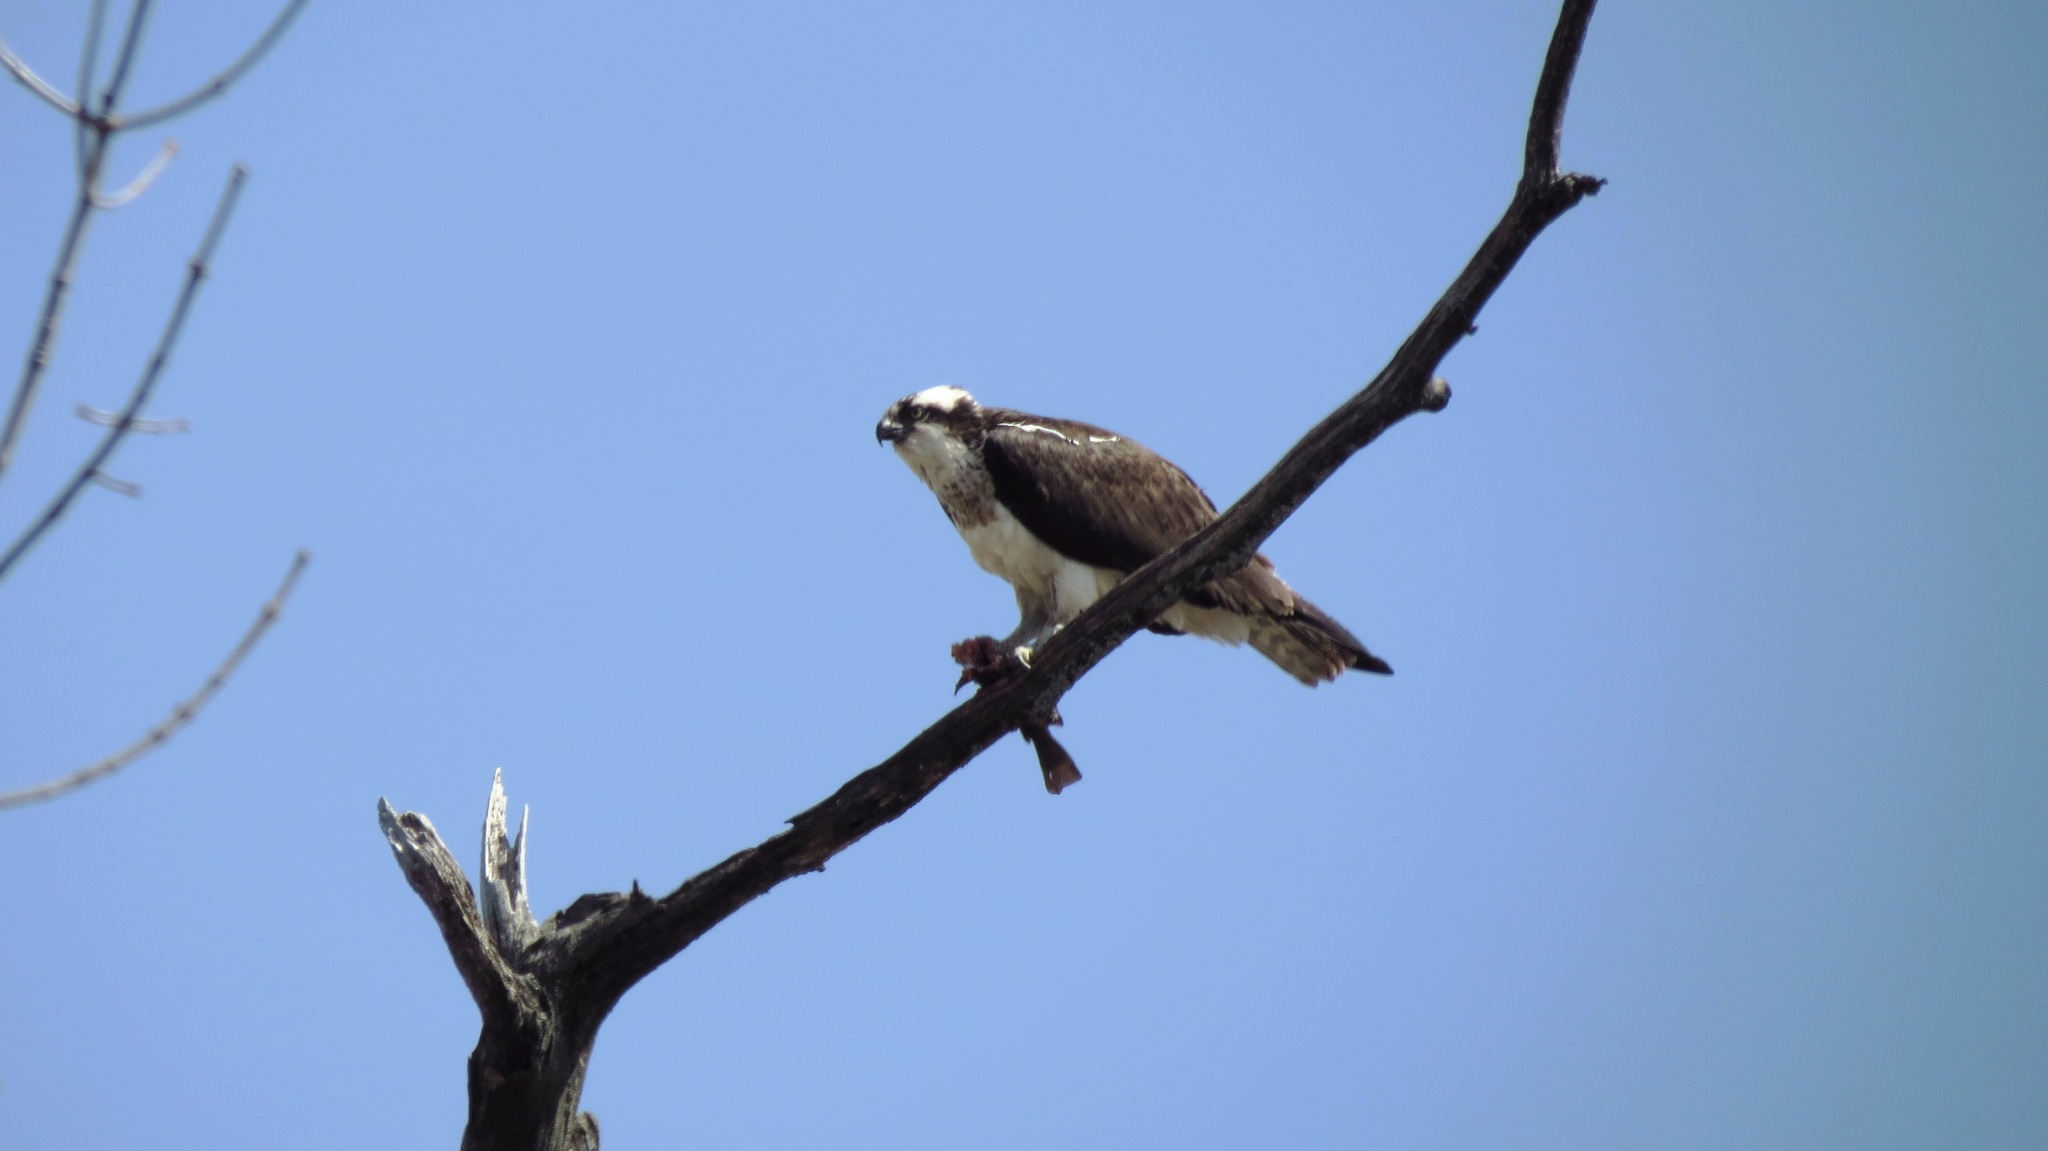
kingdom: Animalia
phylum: Chordata
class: Aves
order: Accipitriformes
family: Pandionidae
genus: Pandion
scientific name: Pandion haliaetus
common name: Osprey
